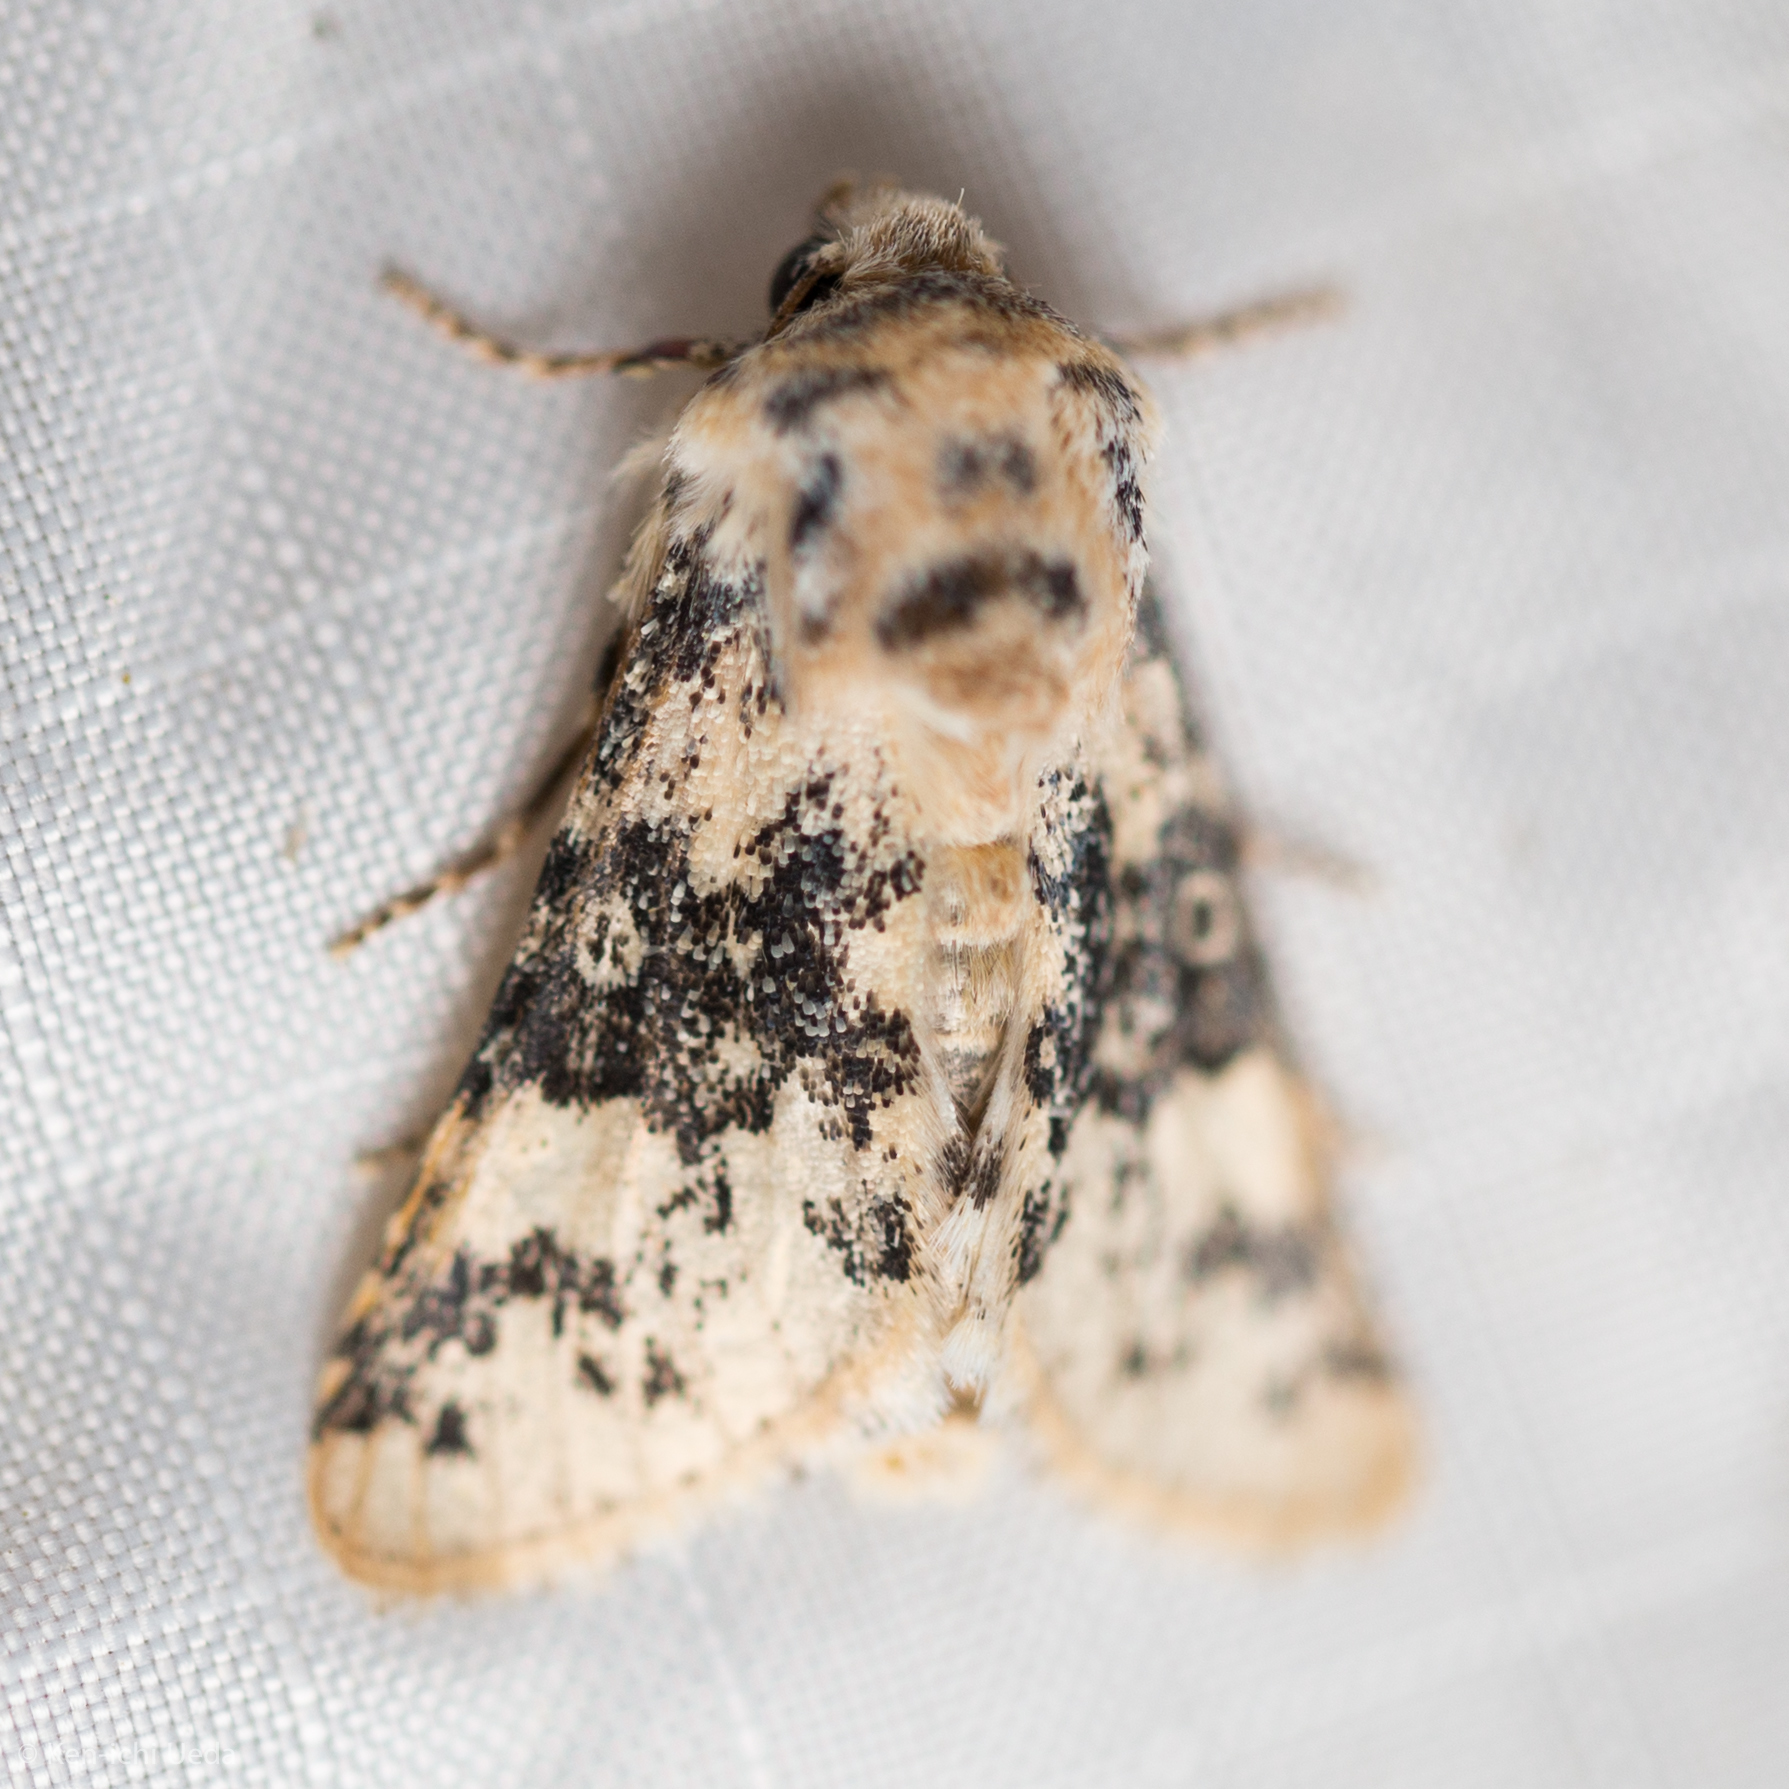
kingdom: Animalia
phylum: Arthropoda
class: Insecta
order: Lepidoptera
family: Noctuidae
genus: Unciella
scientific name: Unciella primula
